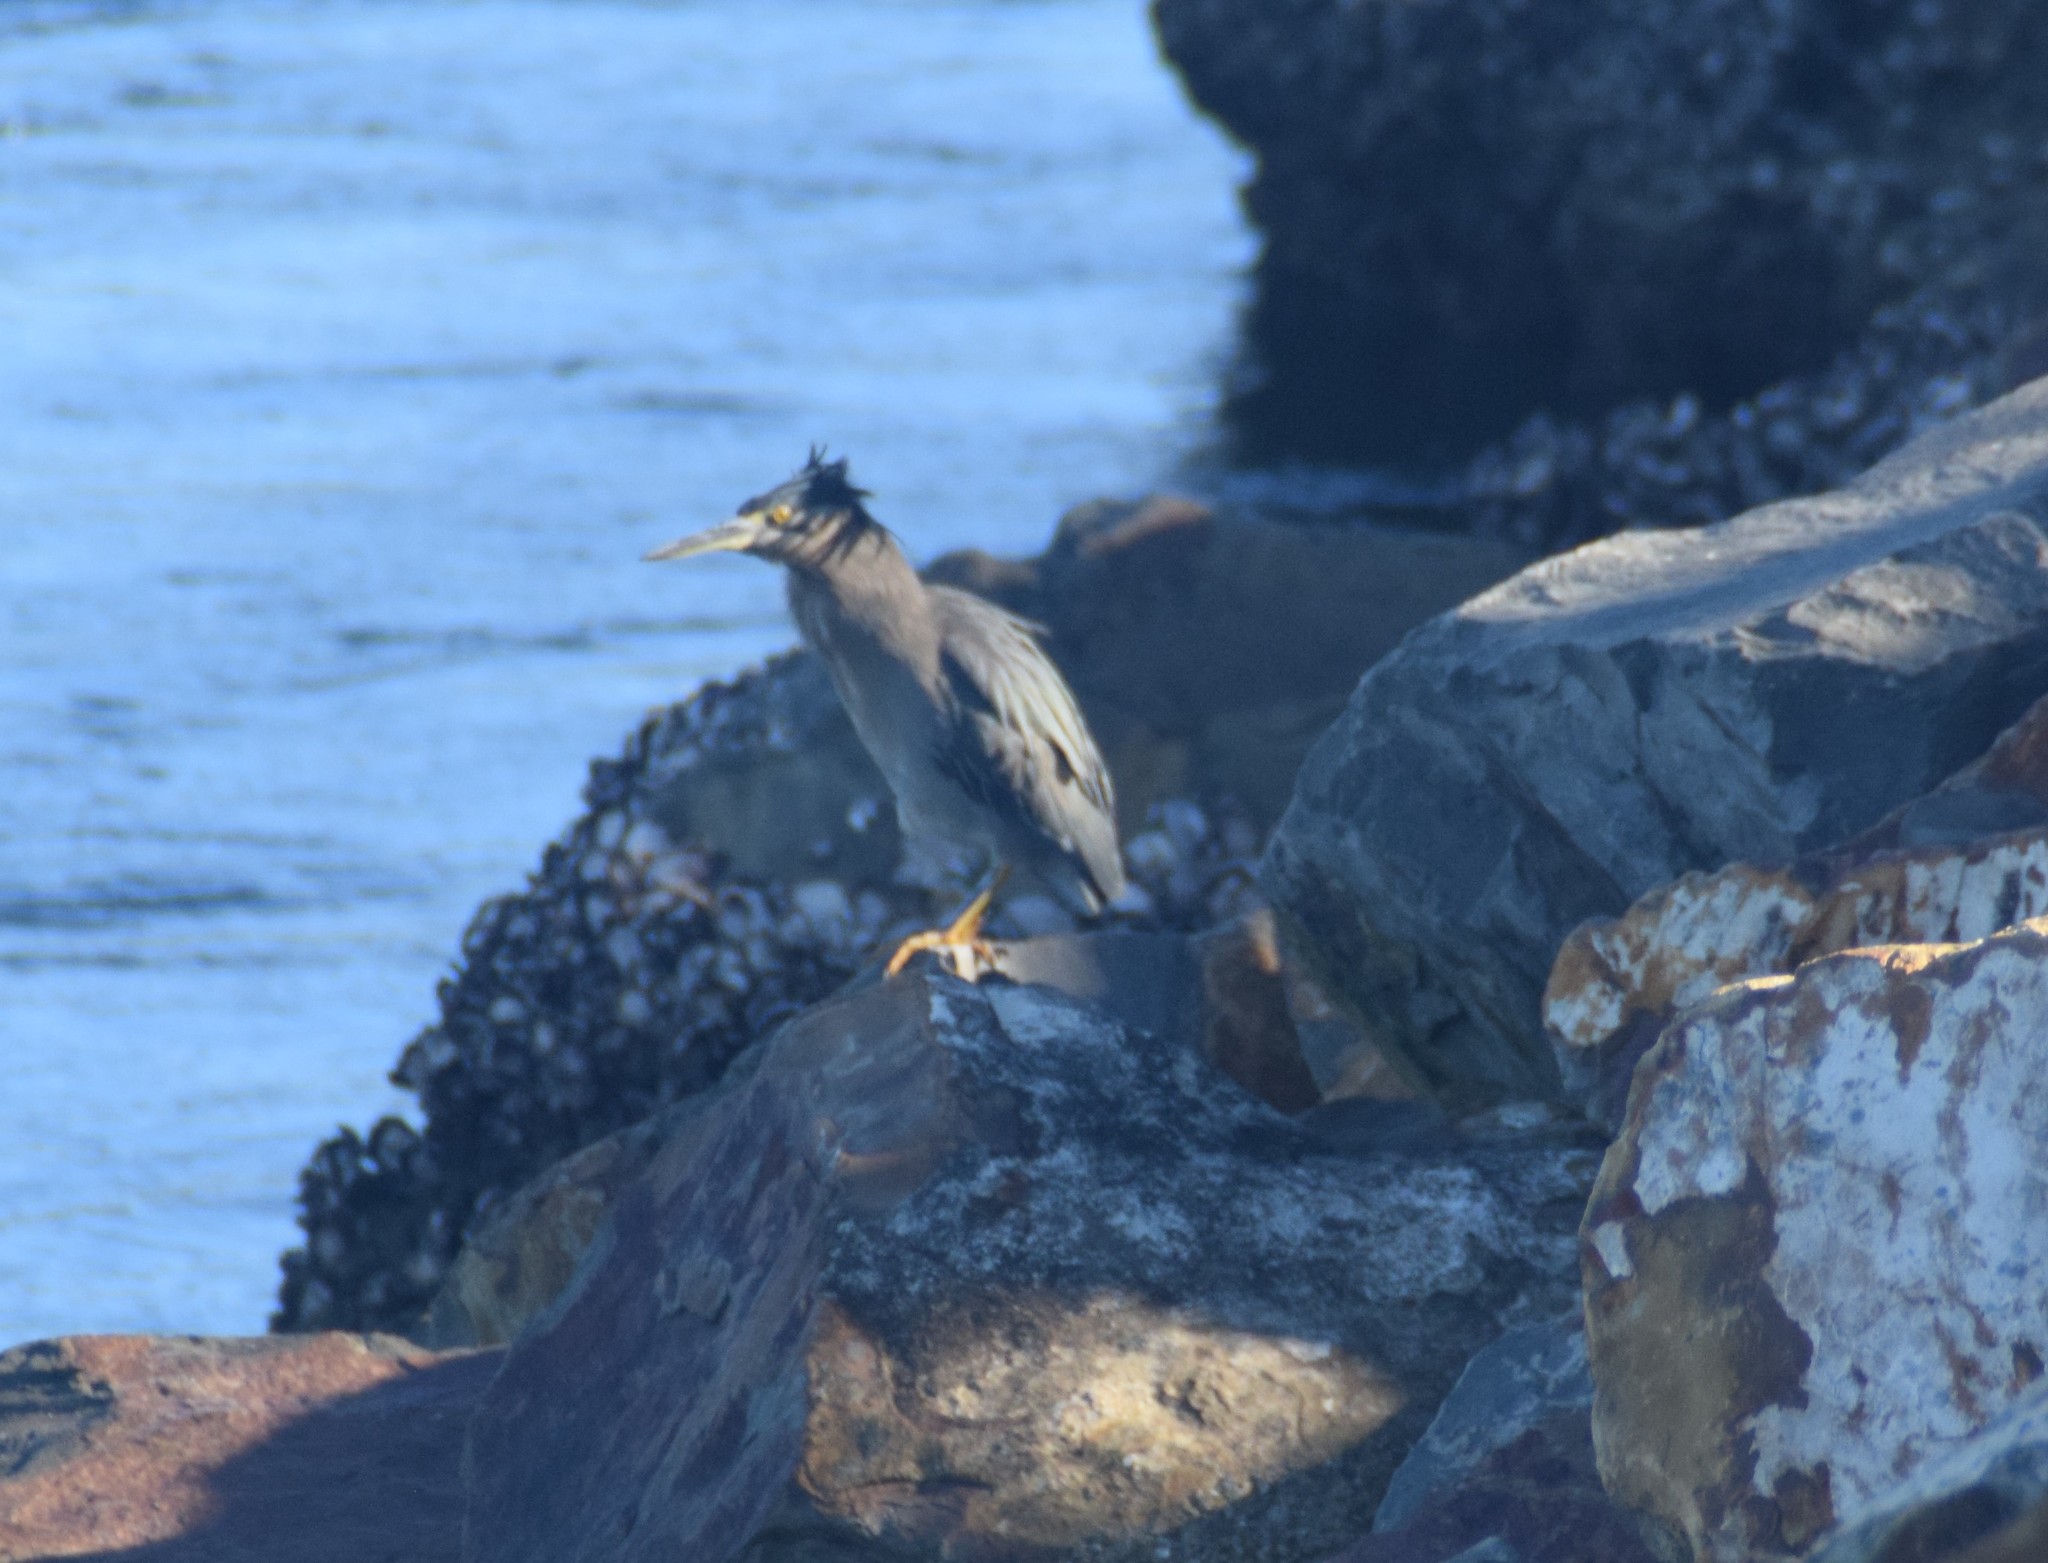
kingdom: Animalia
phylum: Chordata
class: Aves
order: Pelecaniformes
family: Ardeidae
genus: Butorides
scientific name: Butorides striata
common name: Striated heron
